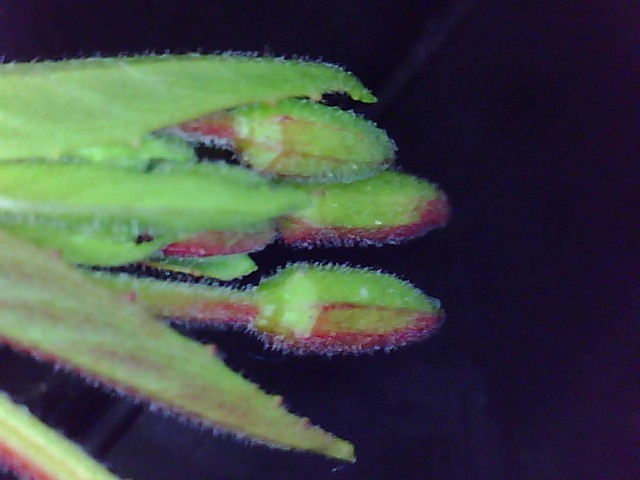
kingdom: Plantae
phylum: Tracheophyta
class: Magnoliopsida
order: Myrtales
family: Onagraceae
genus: Epilobium
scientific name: Epilobium ciliatum
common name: American willowherb
